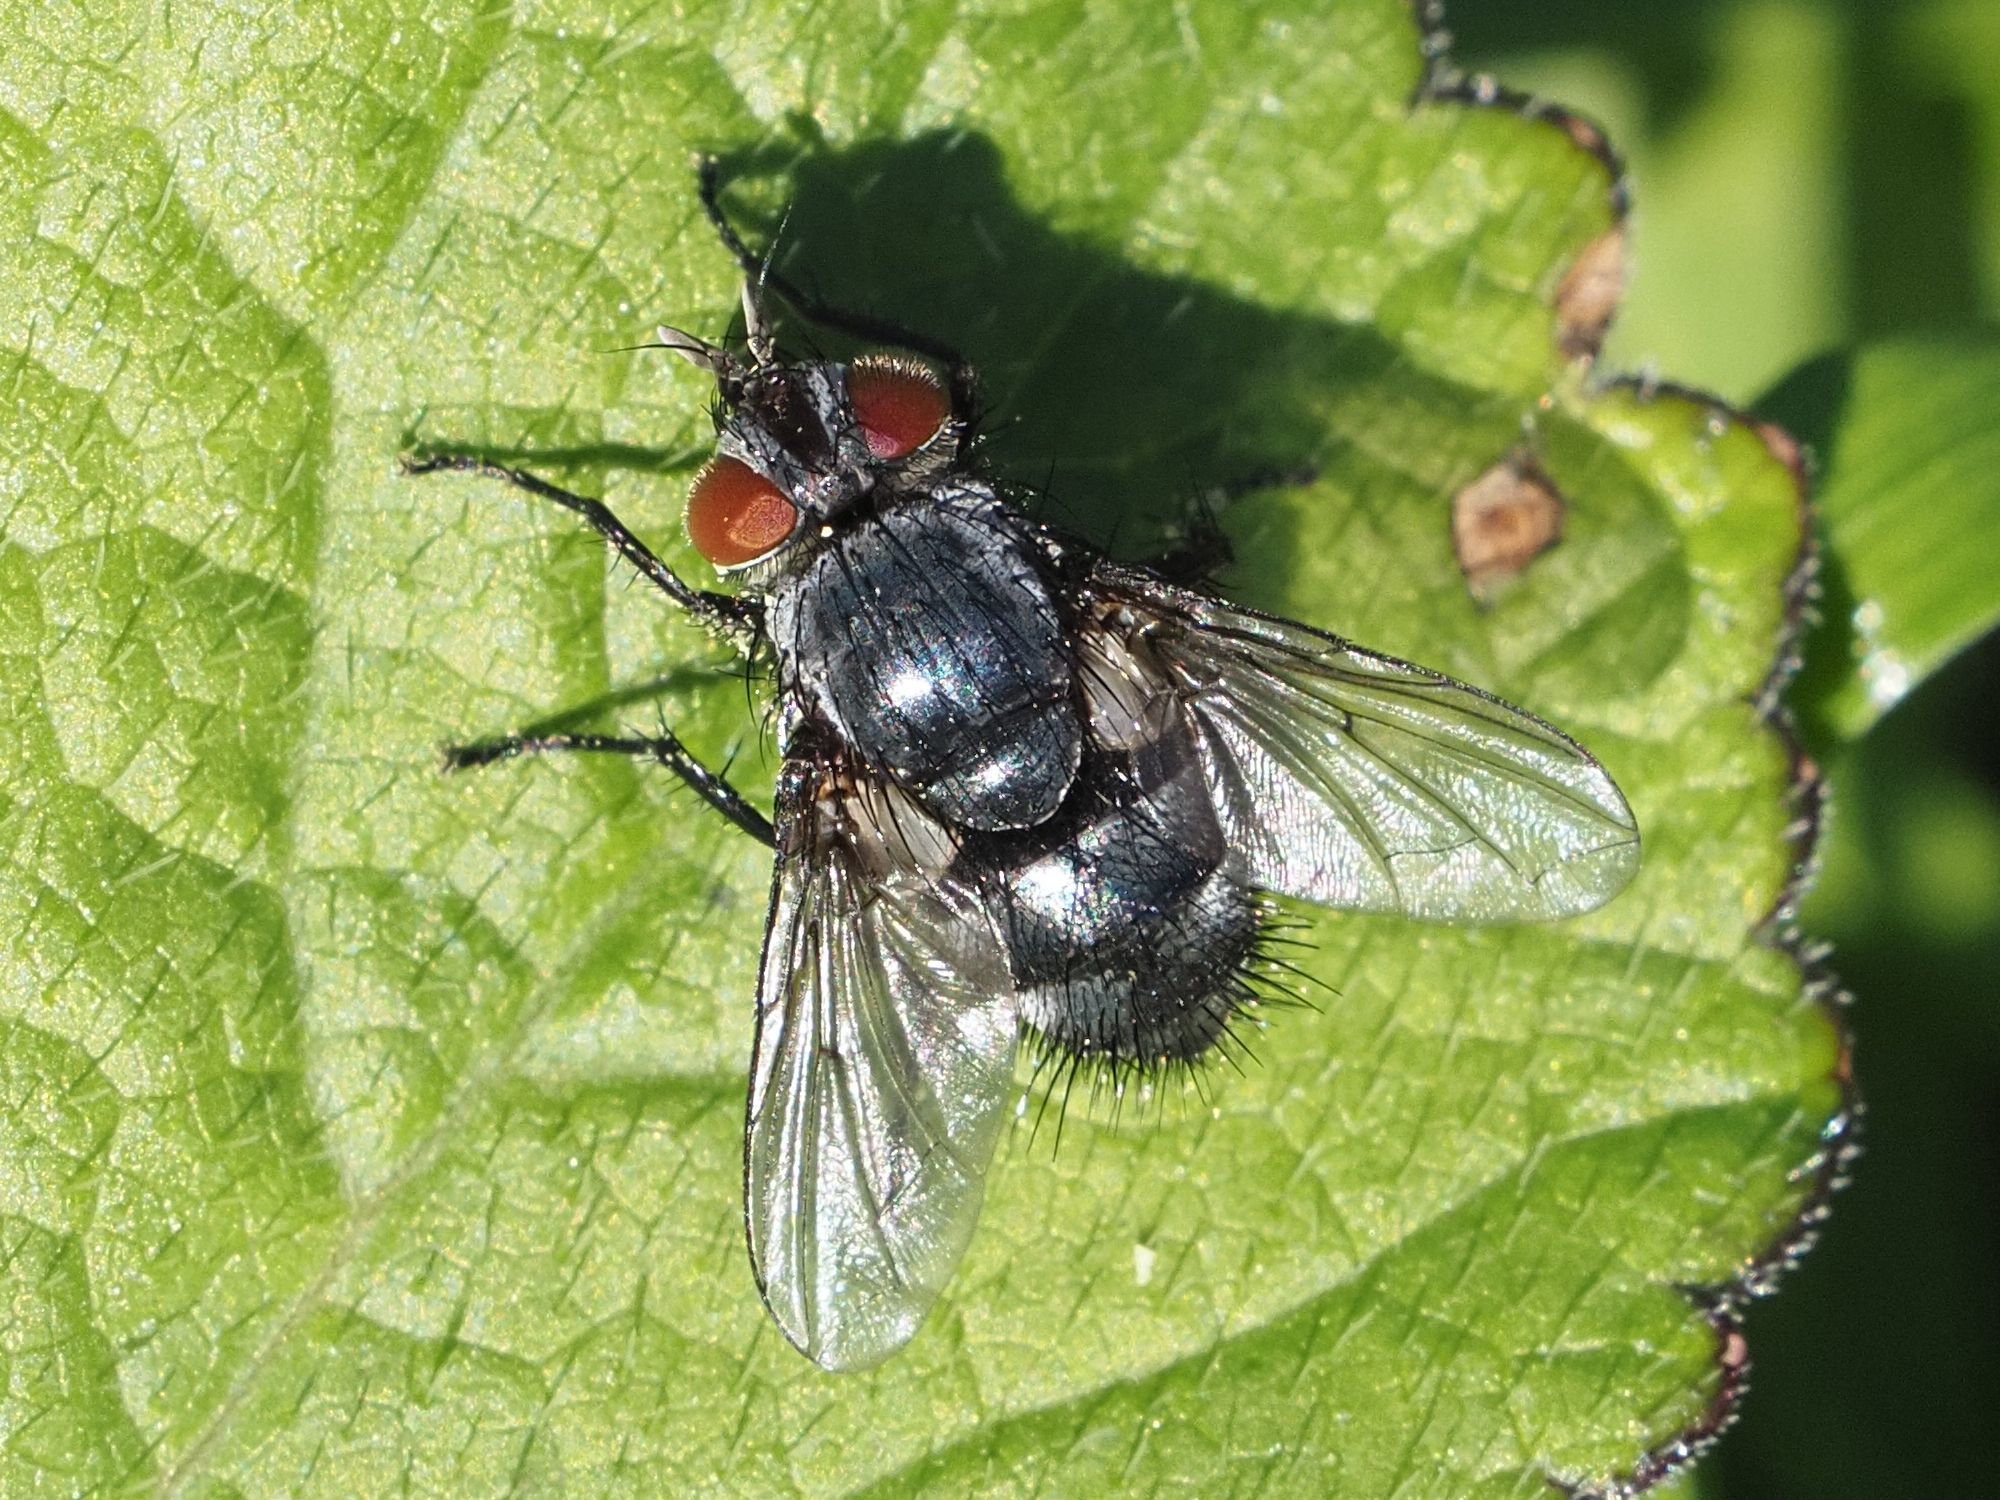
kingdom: Animalia
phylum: Arthropoda
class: Insecta
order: Diptera
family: Tachinidae
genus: Epicampocera
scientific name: Epicampocera succincta
